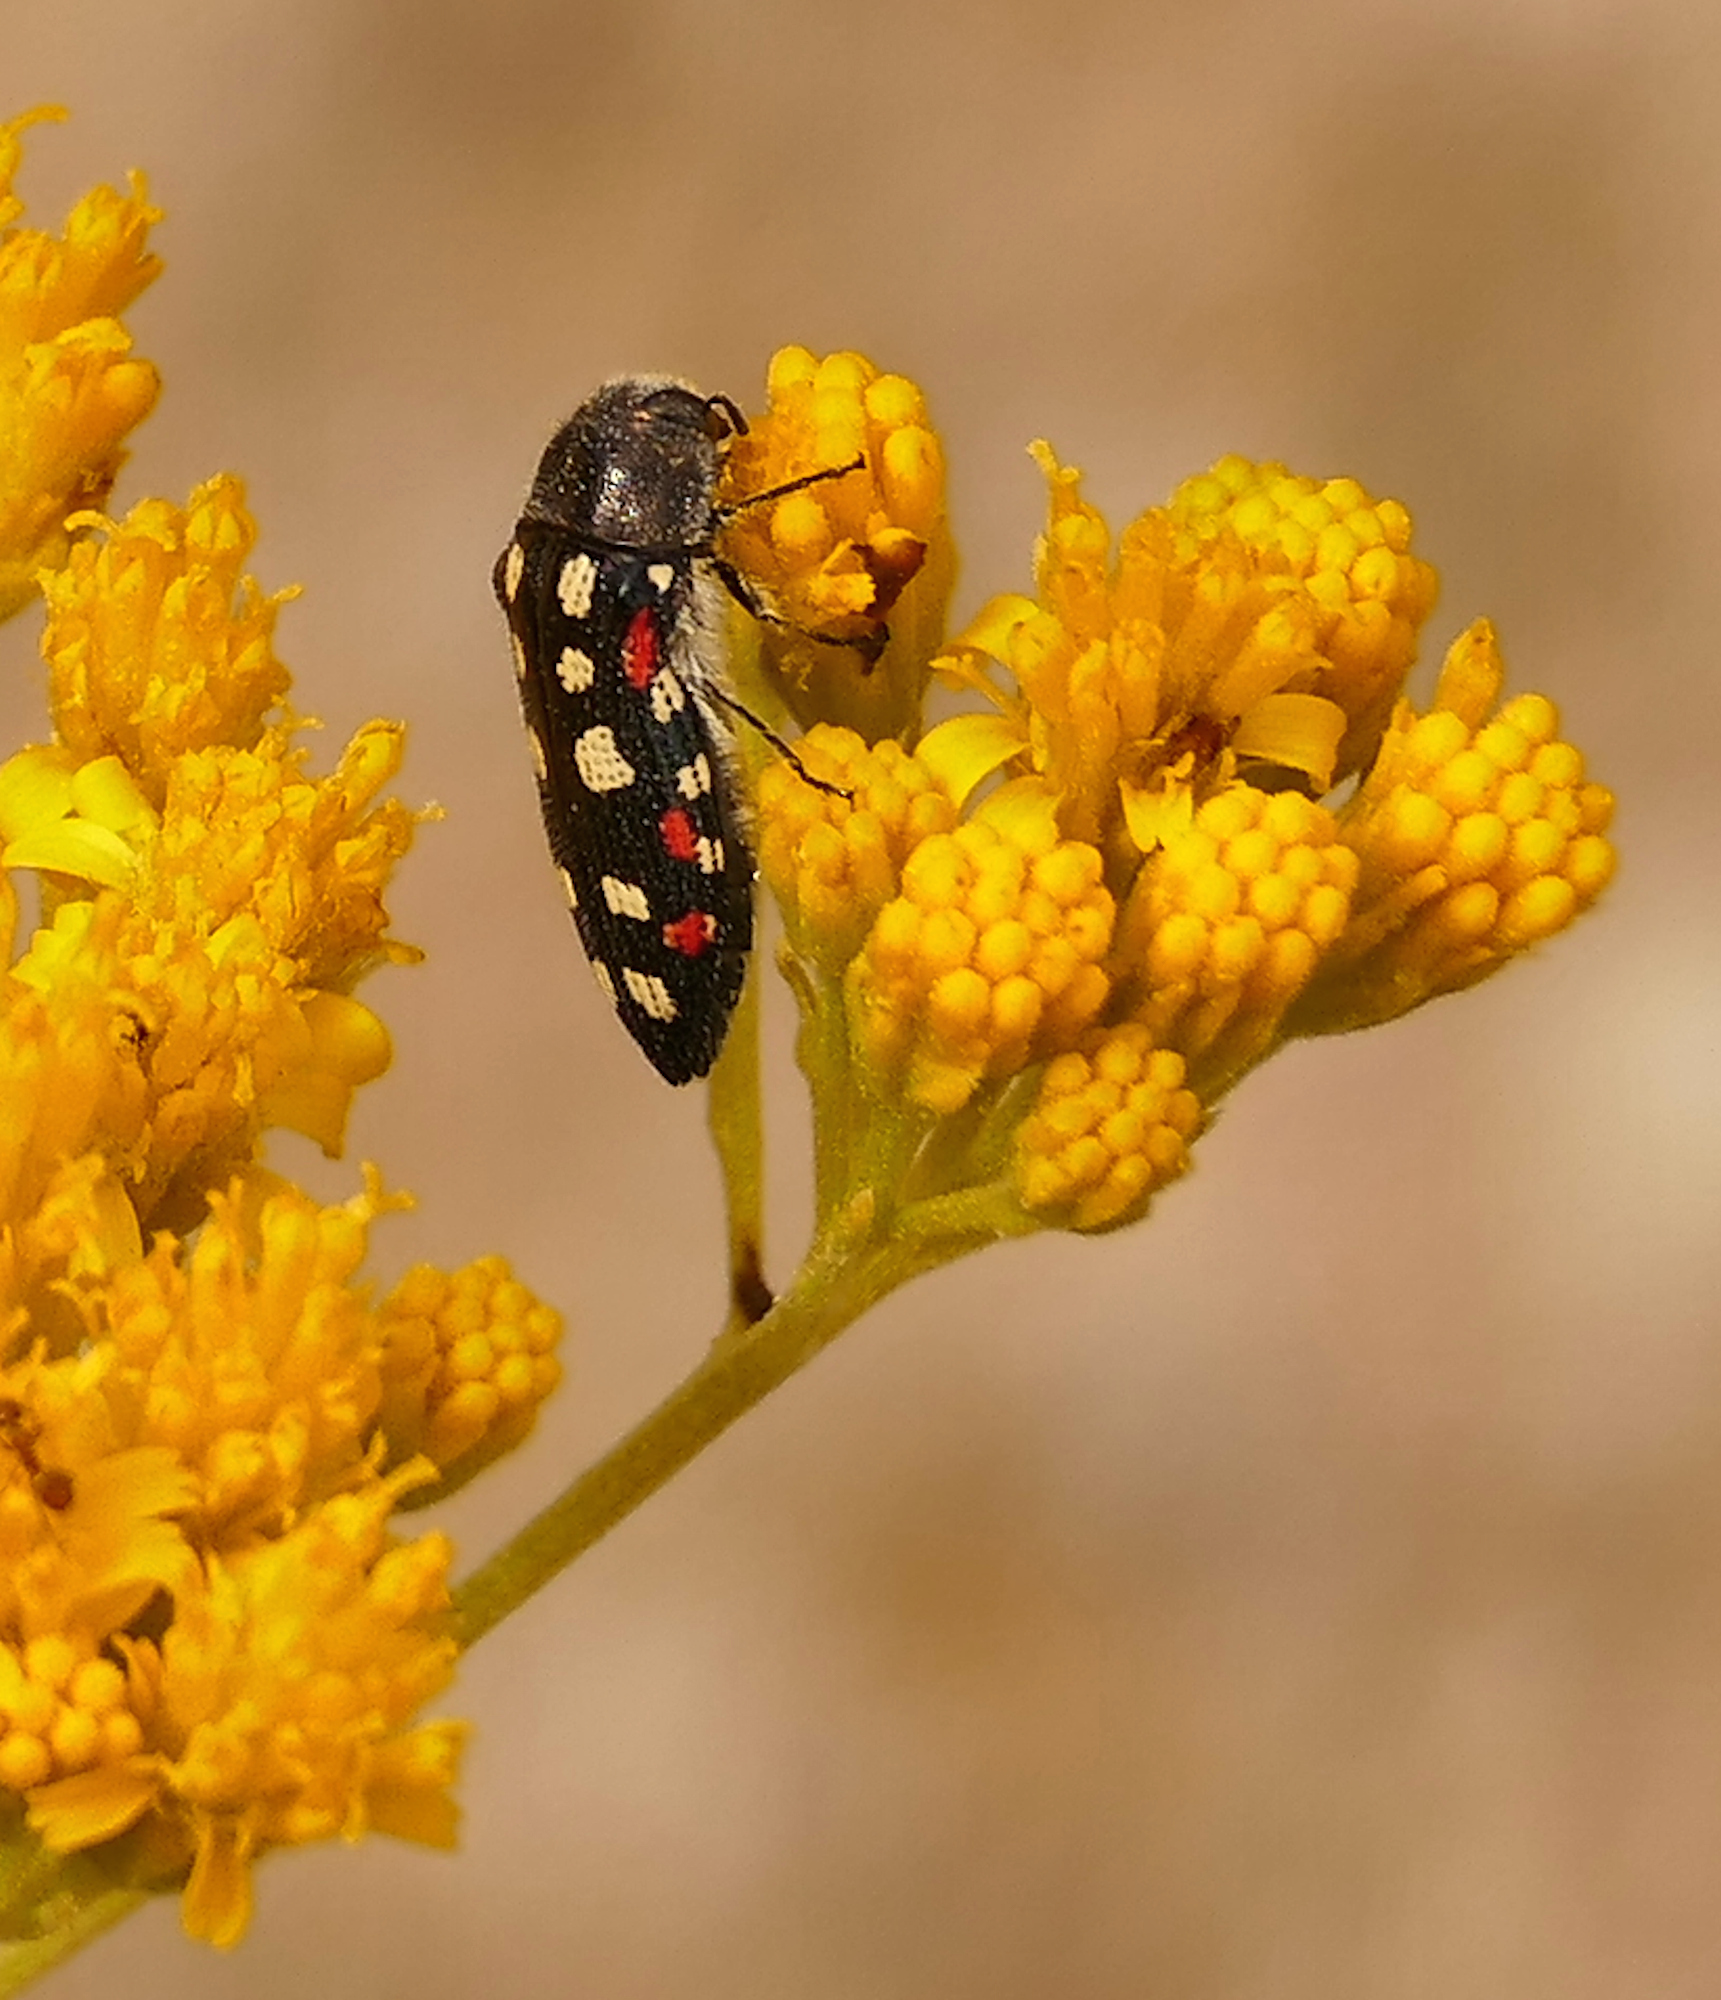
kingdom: Animalia
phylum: Arthropoda
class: Insecta
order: Coleoptera
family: Buprestidae
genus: Acmaeodera
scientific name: Acmaeodera gibbula
